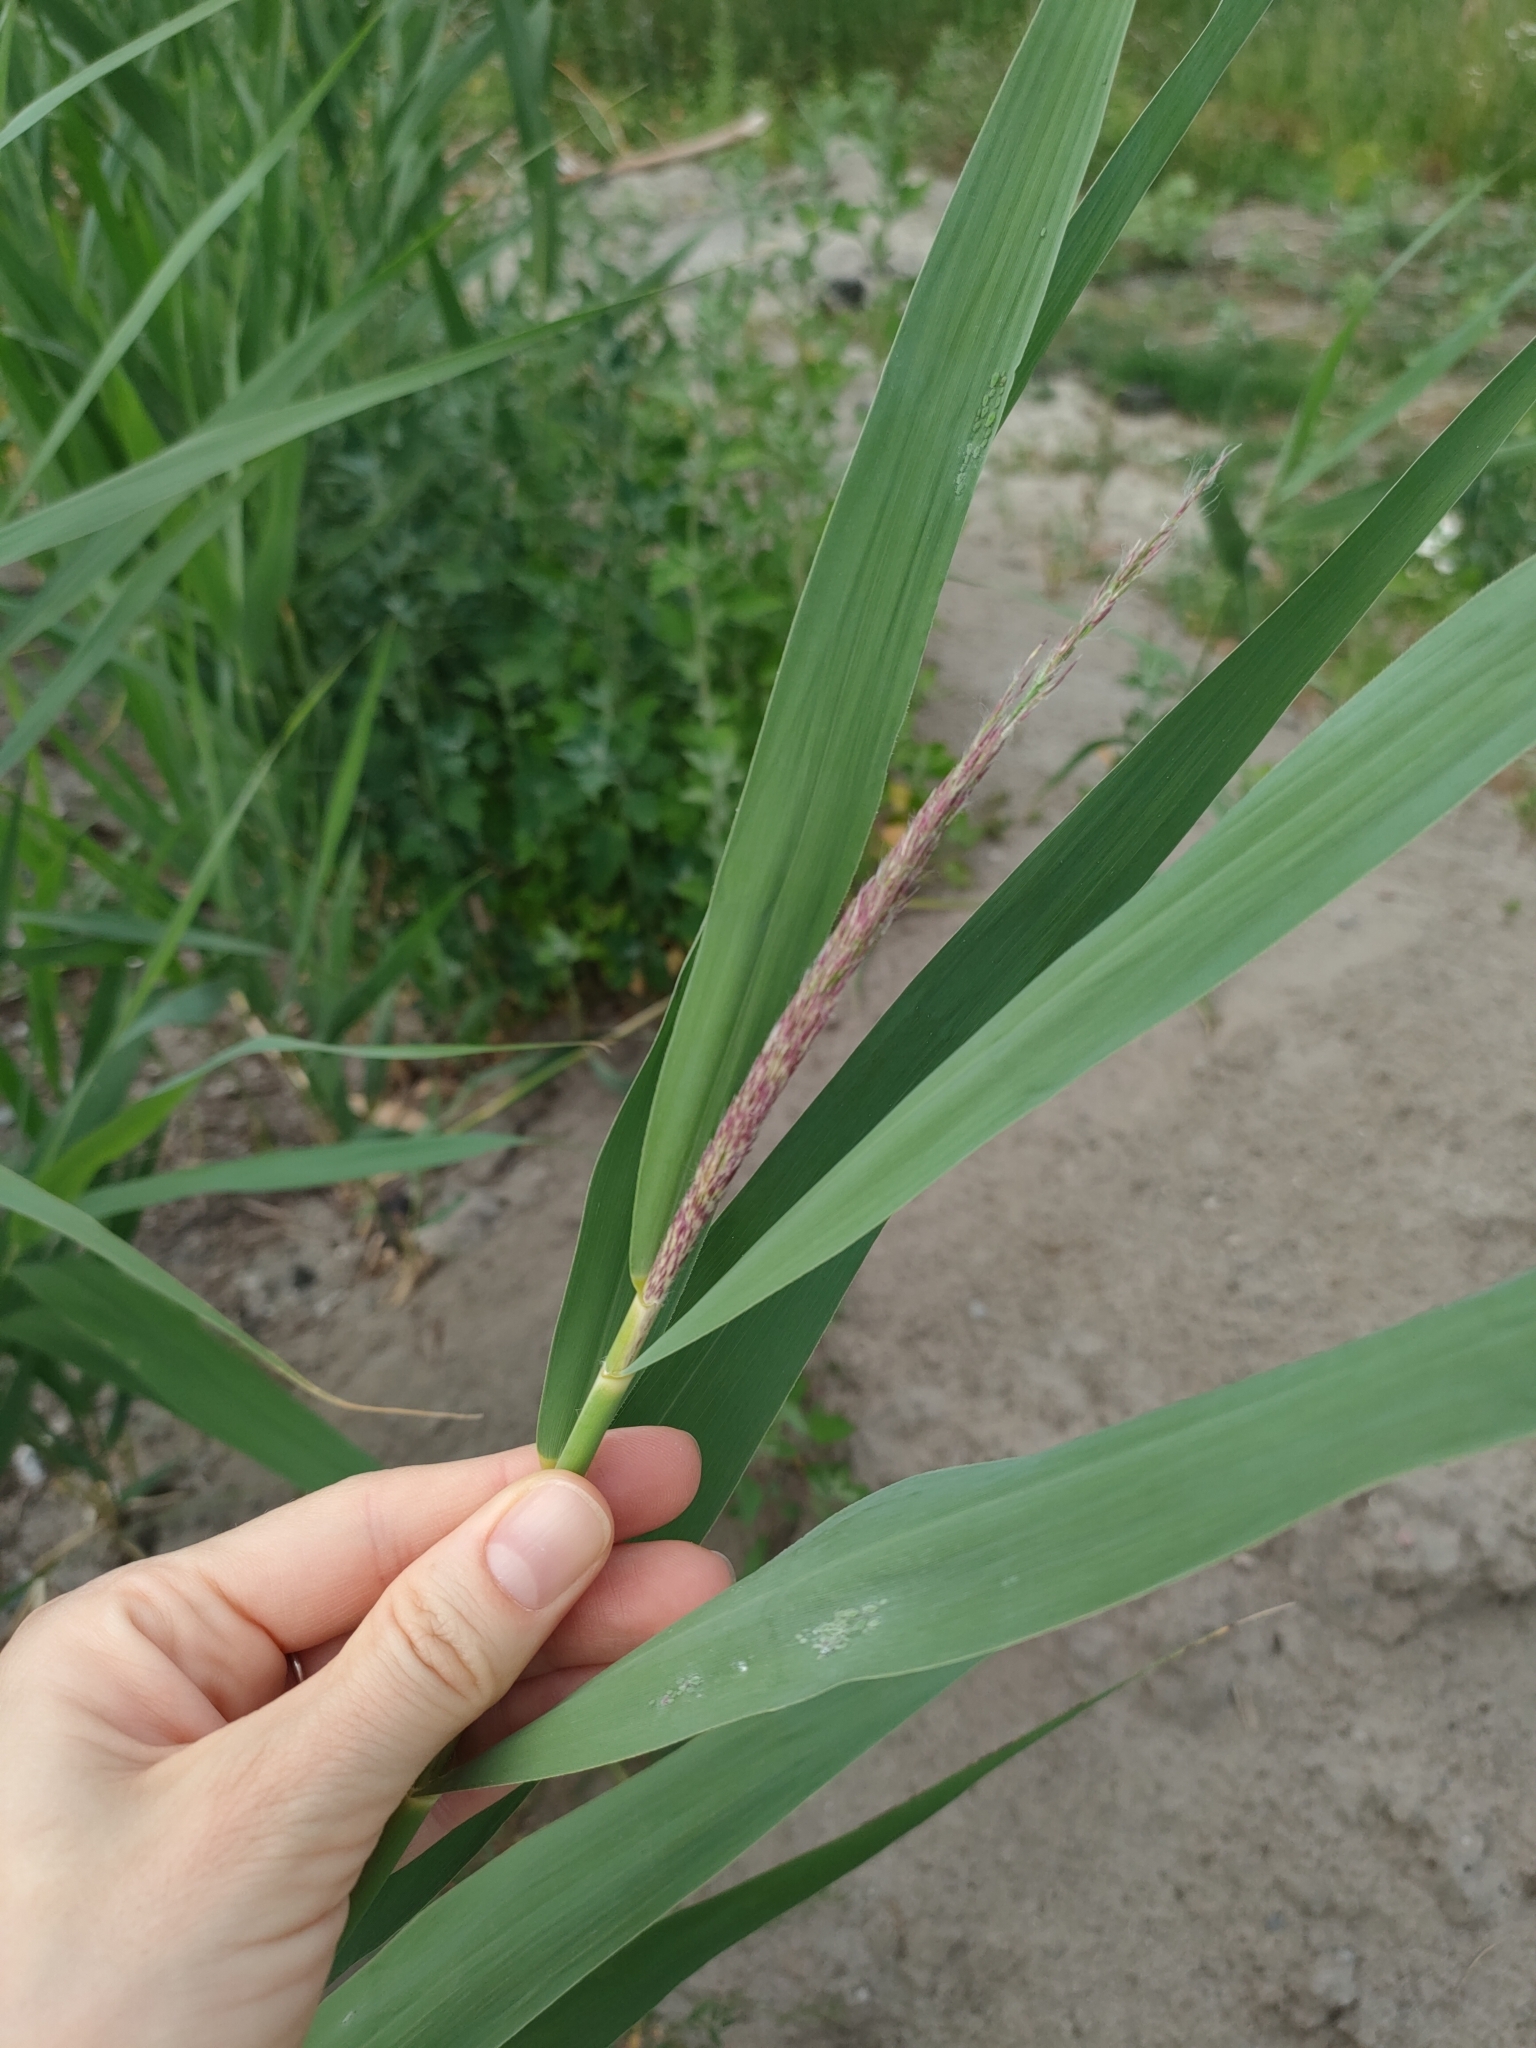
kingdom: Plantae
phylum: Tracheophyta
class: Liliopsida
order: Poales
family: Poaceae
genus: Phragmites
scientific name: Phragmites australis
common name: Common reed
